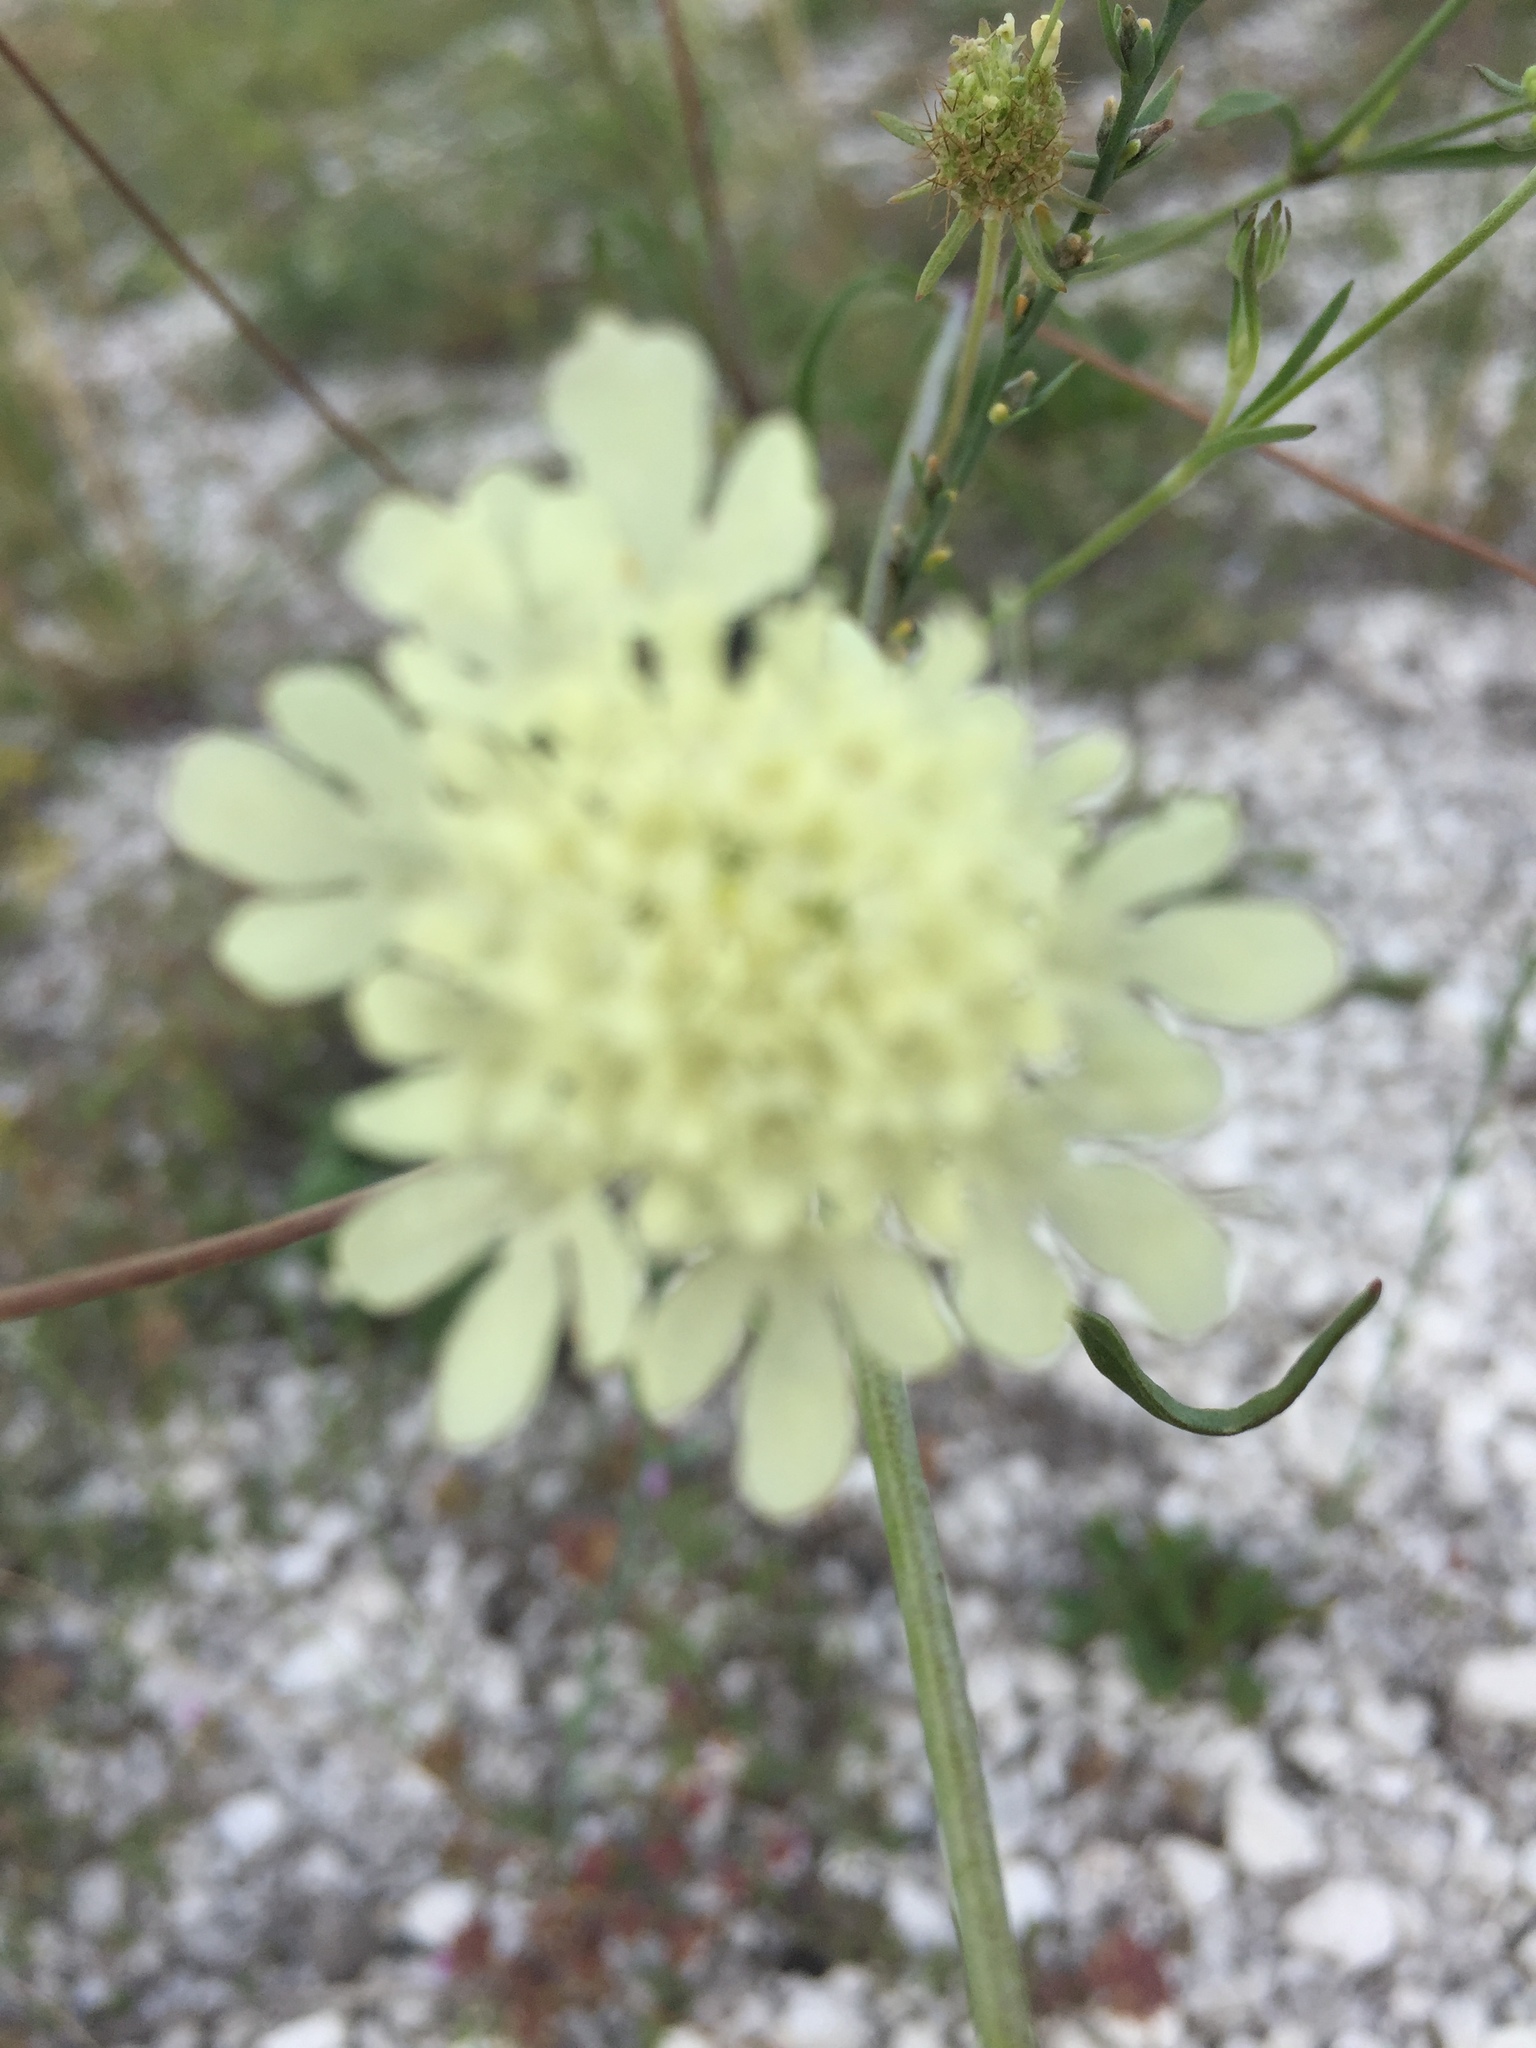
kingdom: Plantae
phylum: Tracheophyta
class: Magnoliopsida
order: Dipsacales
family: Caprifoliaceae
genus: Scabiosa
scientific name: Scabiosa ochroleuca
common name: Cream pincushions
